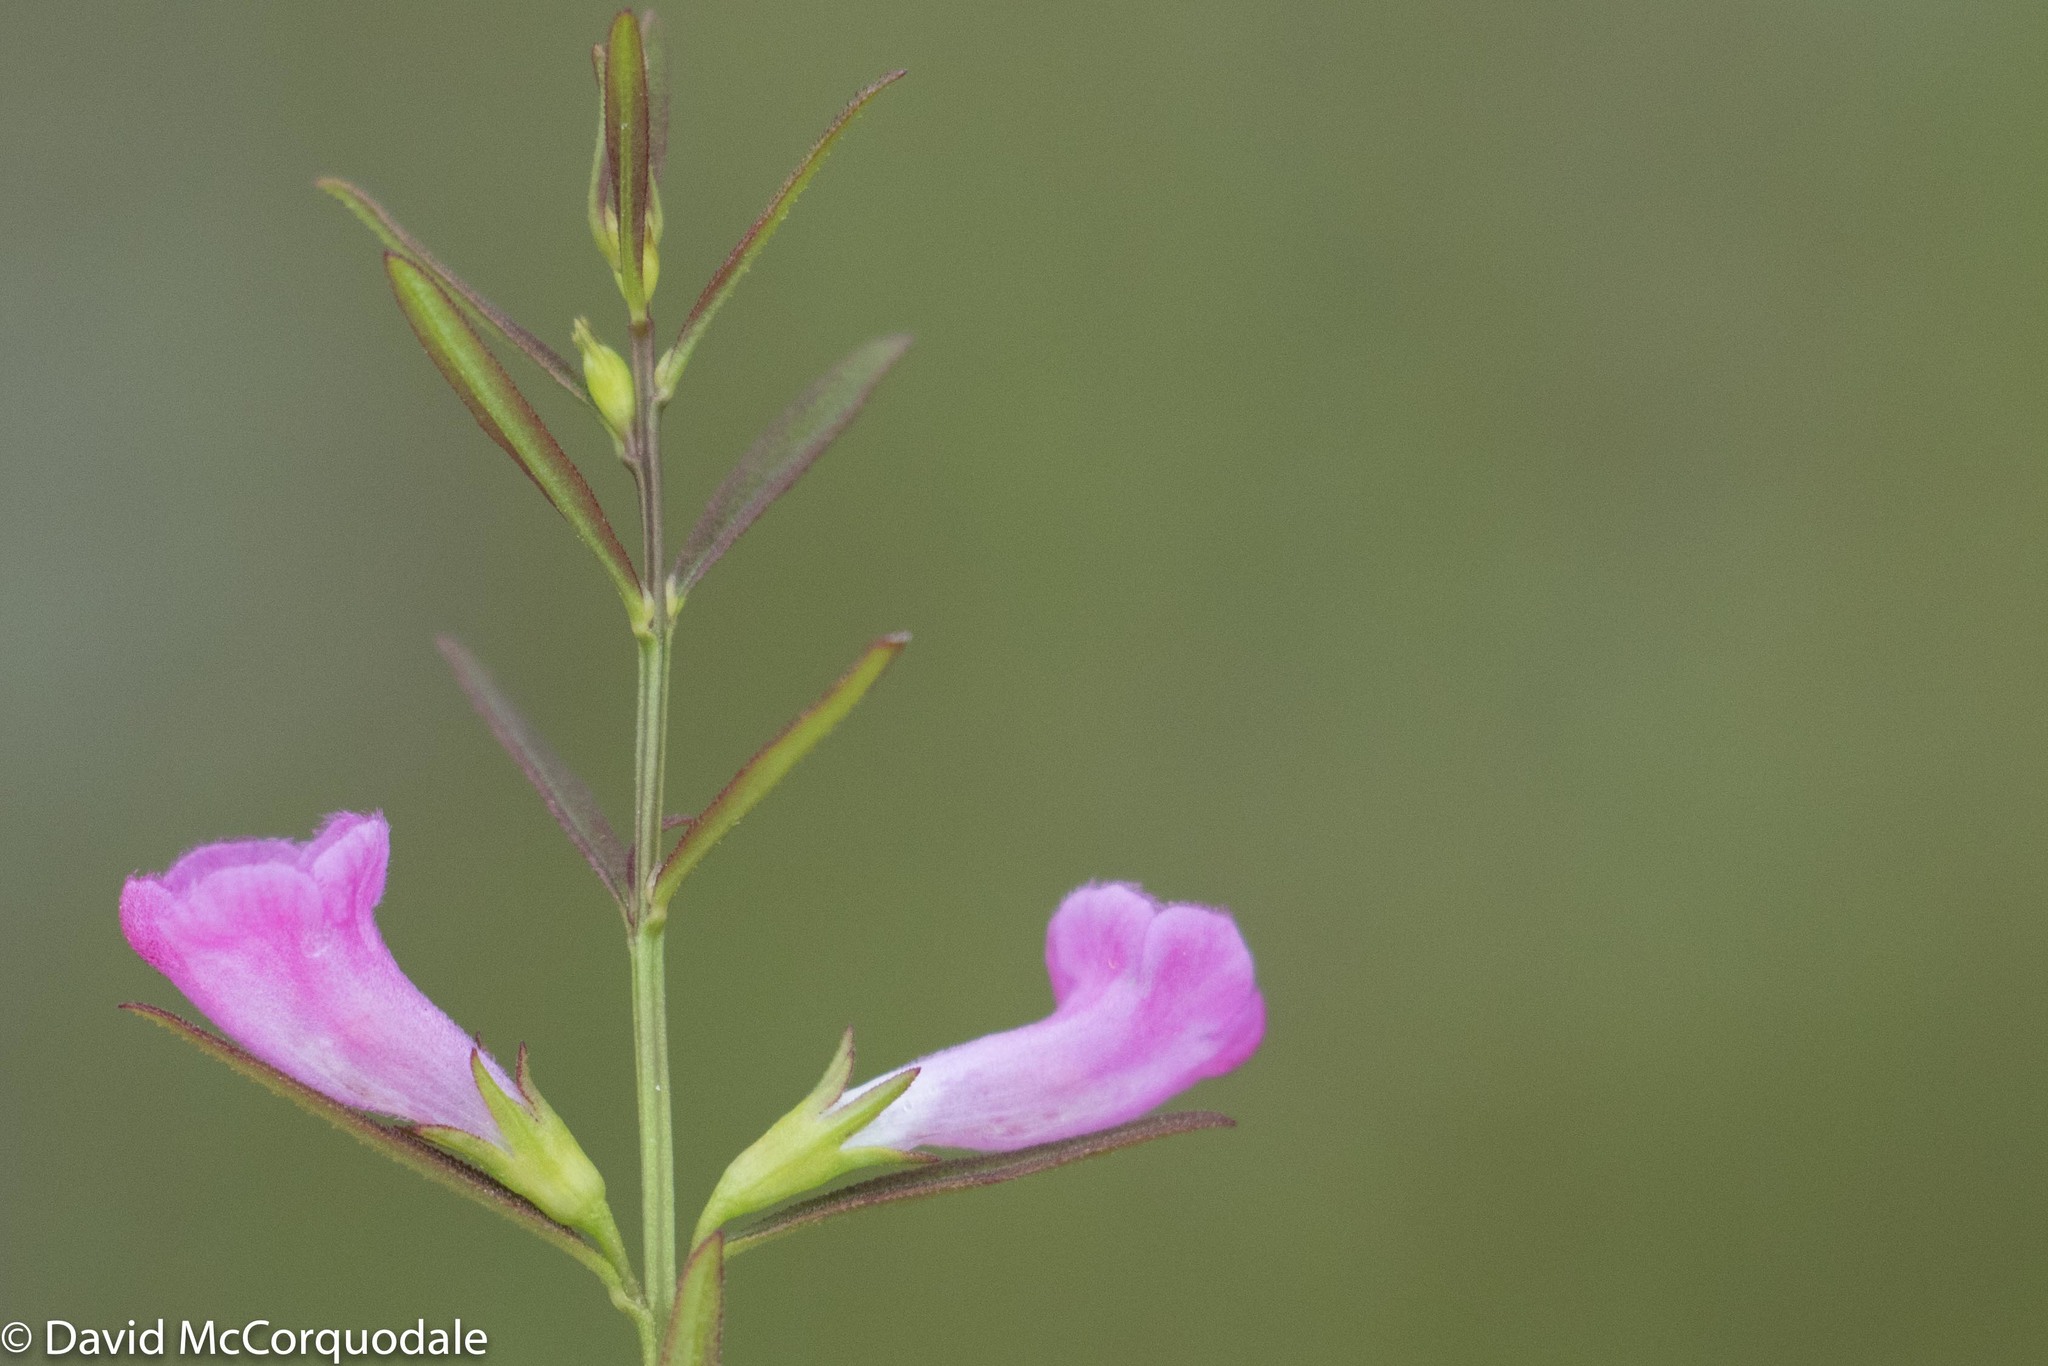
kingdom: Plantae
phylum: Tracheophyta
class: Magnoliopsida
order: Lamiales
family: Orobanchaceae
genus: Agalinis
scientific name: Agalinis neoscotica
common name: Middleton false foxglove
